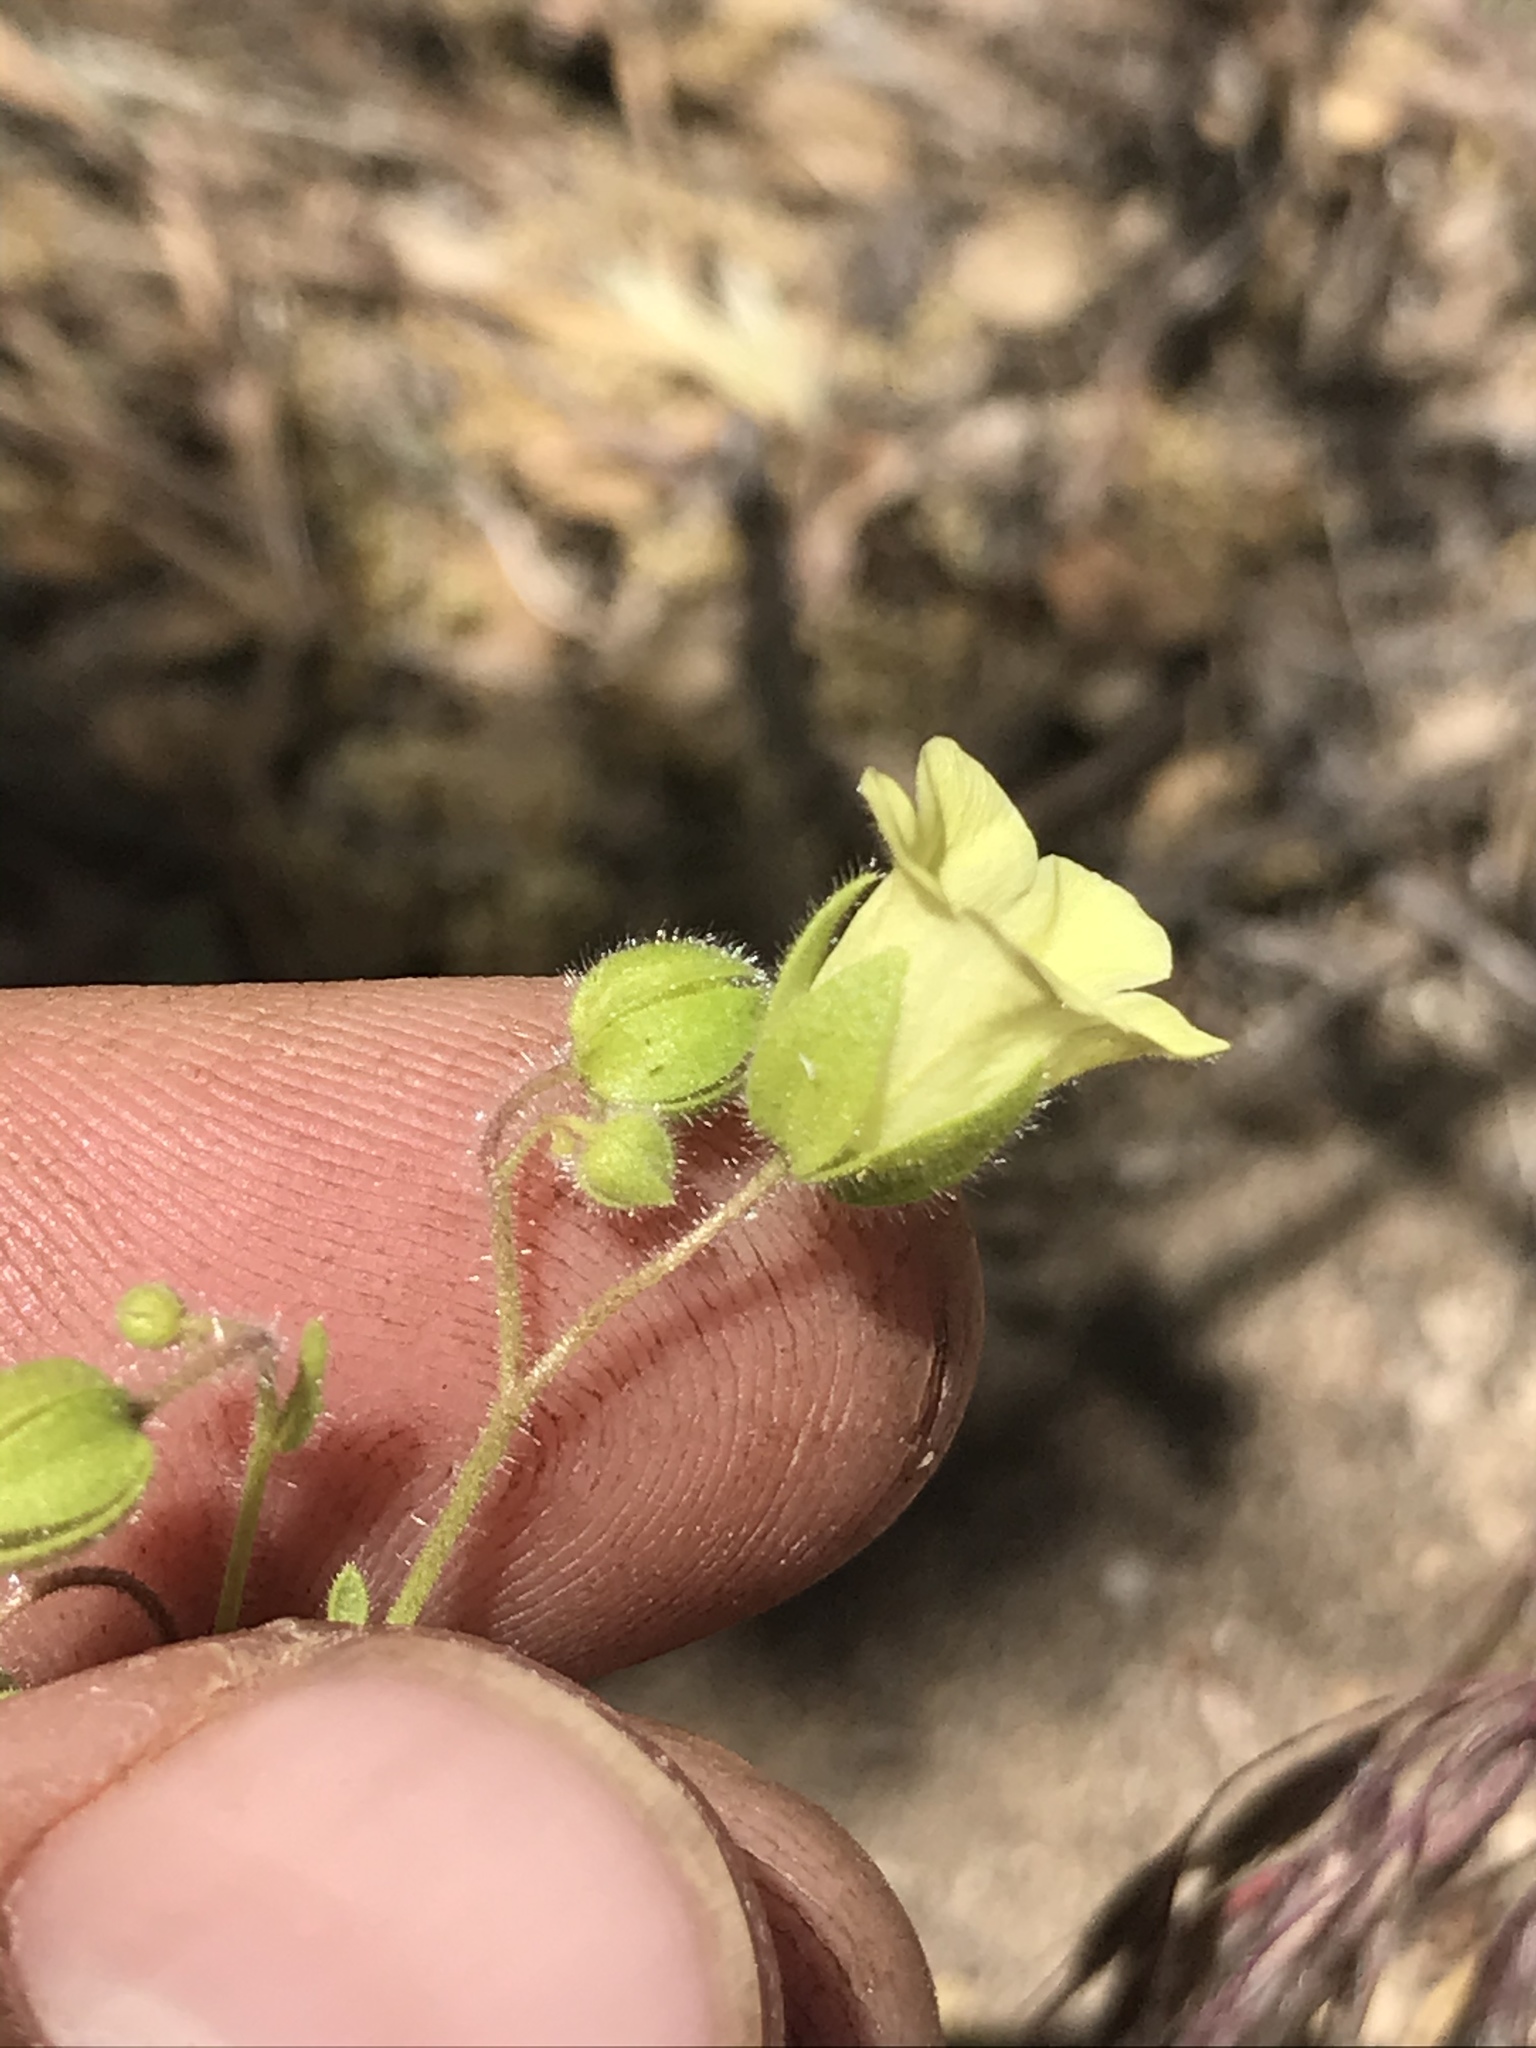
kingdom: Plantae
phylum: Tracheophyta
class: Magnoliopsida
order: Boraginales
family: Hydrophyllaceae
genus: Emmenanthe
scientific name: Emmenanthe penduliflora
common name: Whispering-bells
